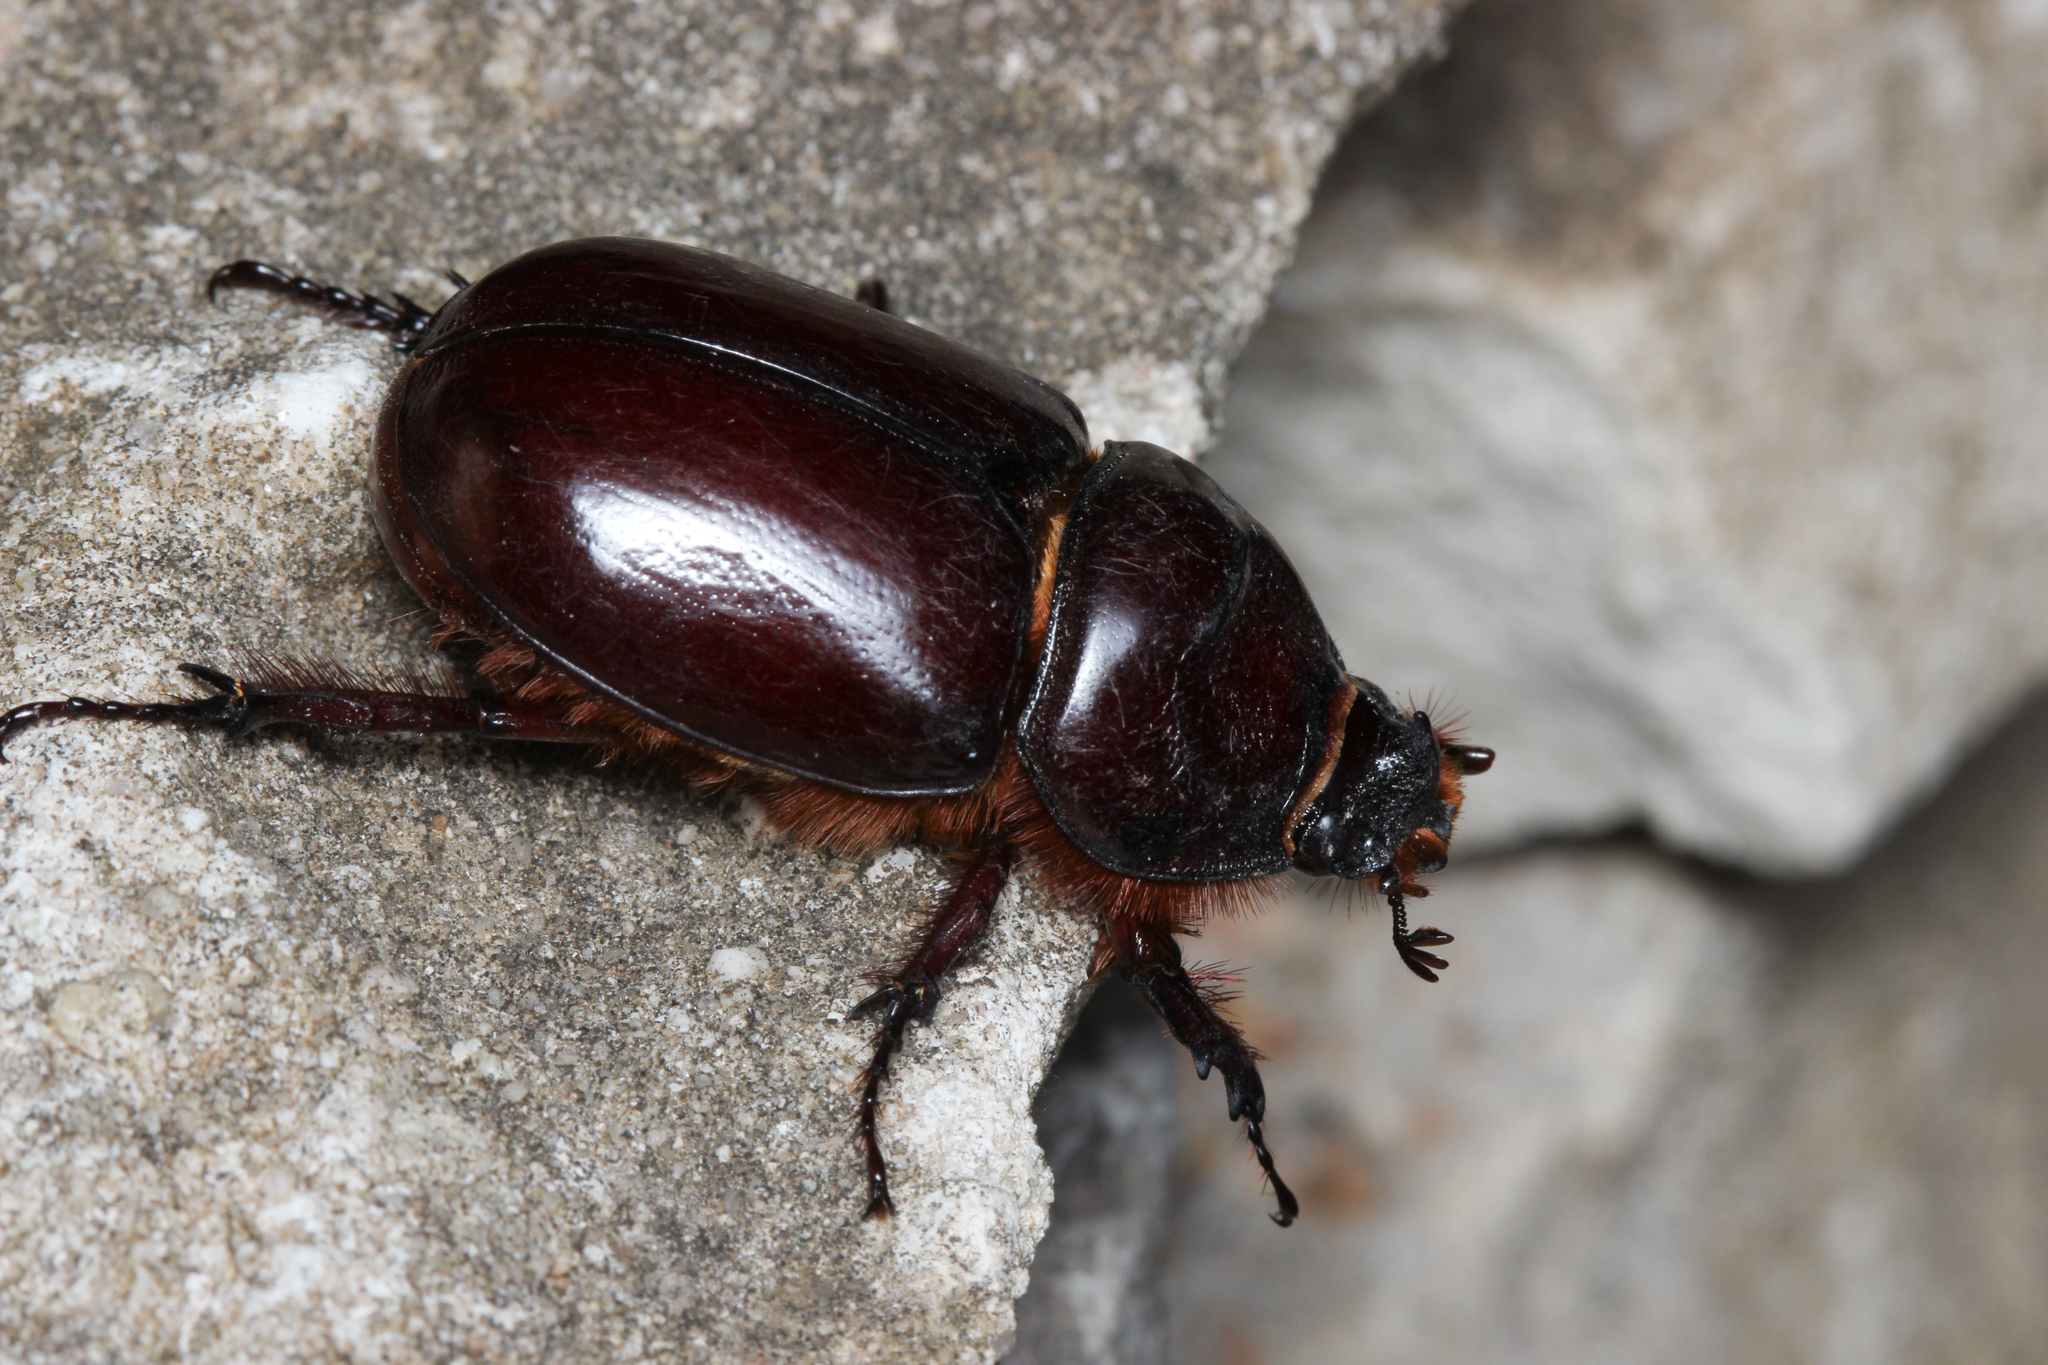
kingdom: Animalia
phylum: Arthropoda
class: Insecta
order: Coleoptera
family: Scarabaeidae
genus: Oryctes
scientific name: Oryctes nasicornis
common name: European rhinoceros beetle
